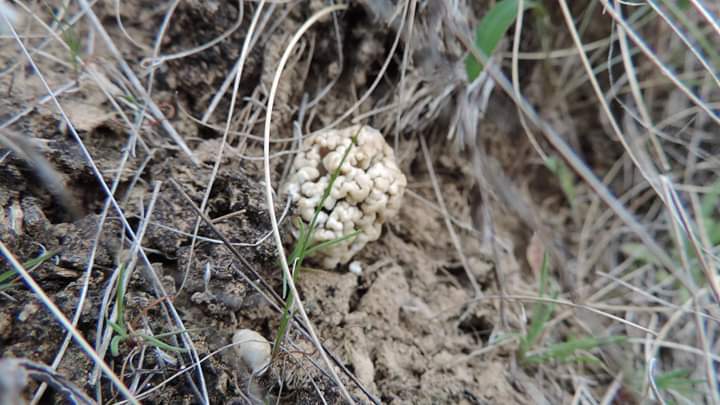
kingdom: Fungi
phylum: Ascomycota
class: Pezizomycetes
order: Pezizales
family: Morchellaceae
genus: Morchella
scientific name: Morchella steppicola
